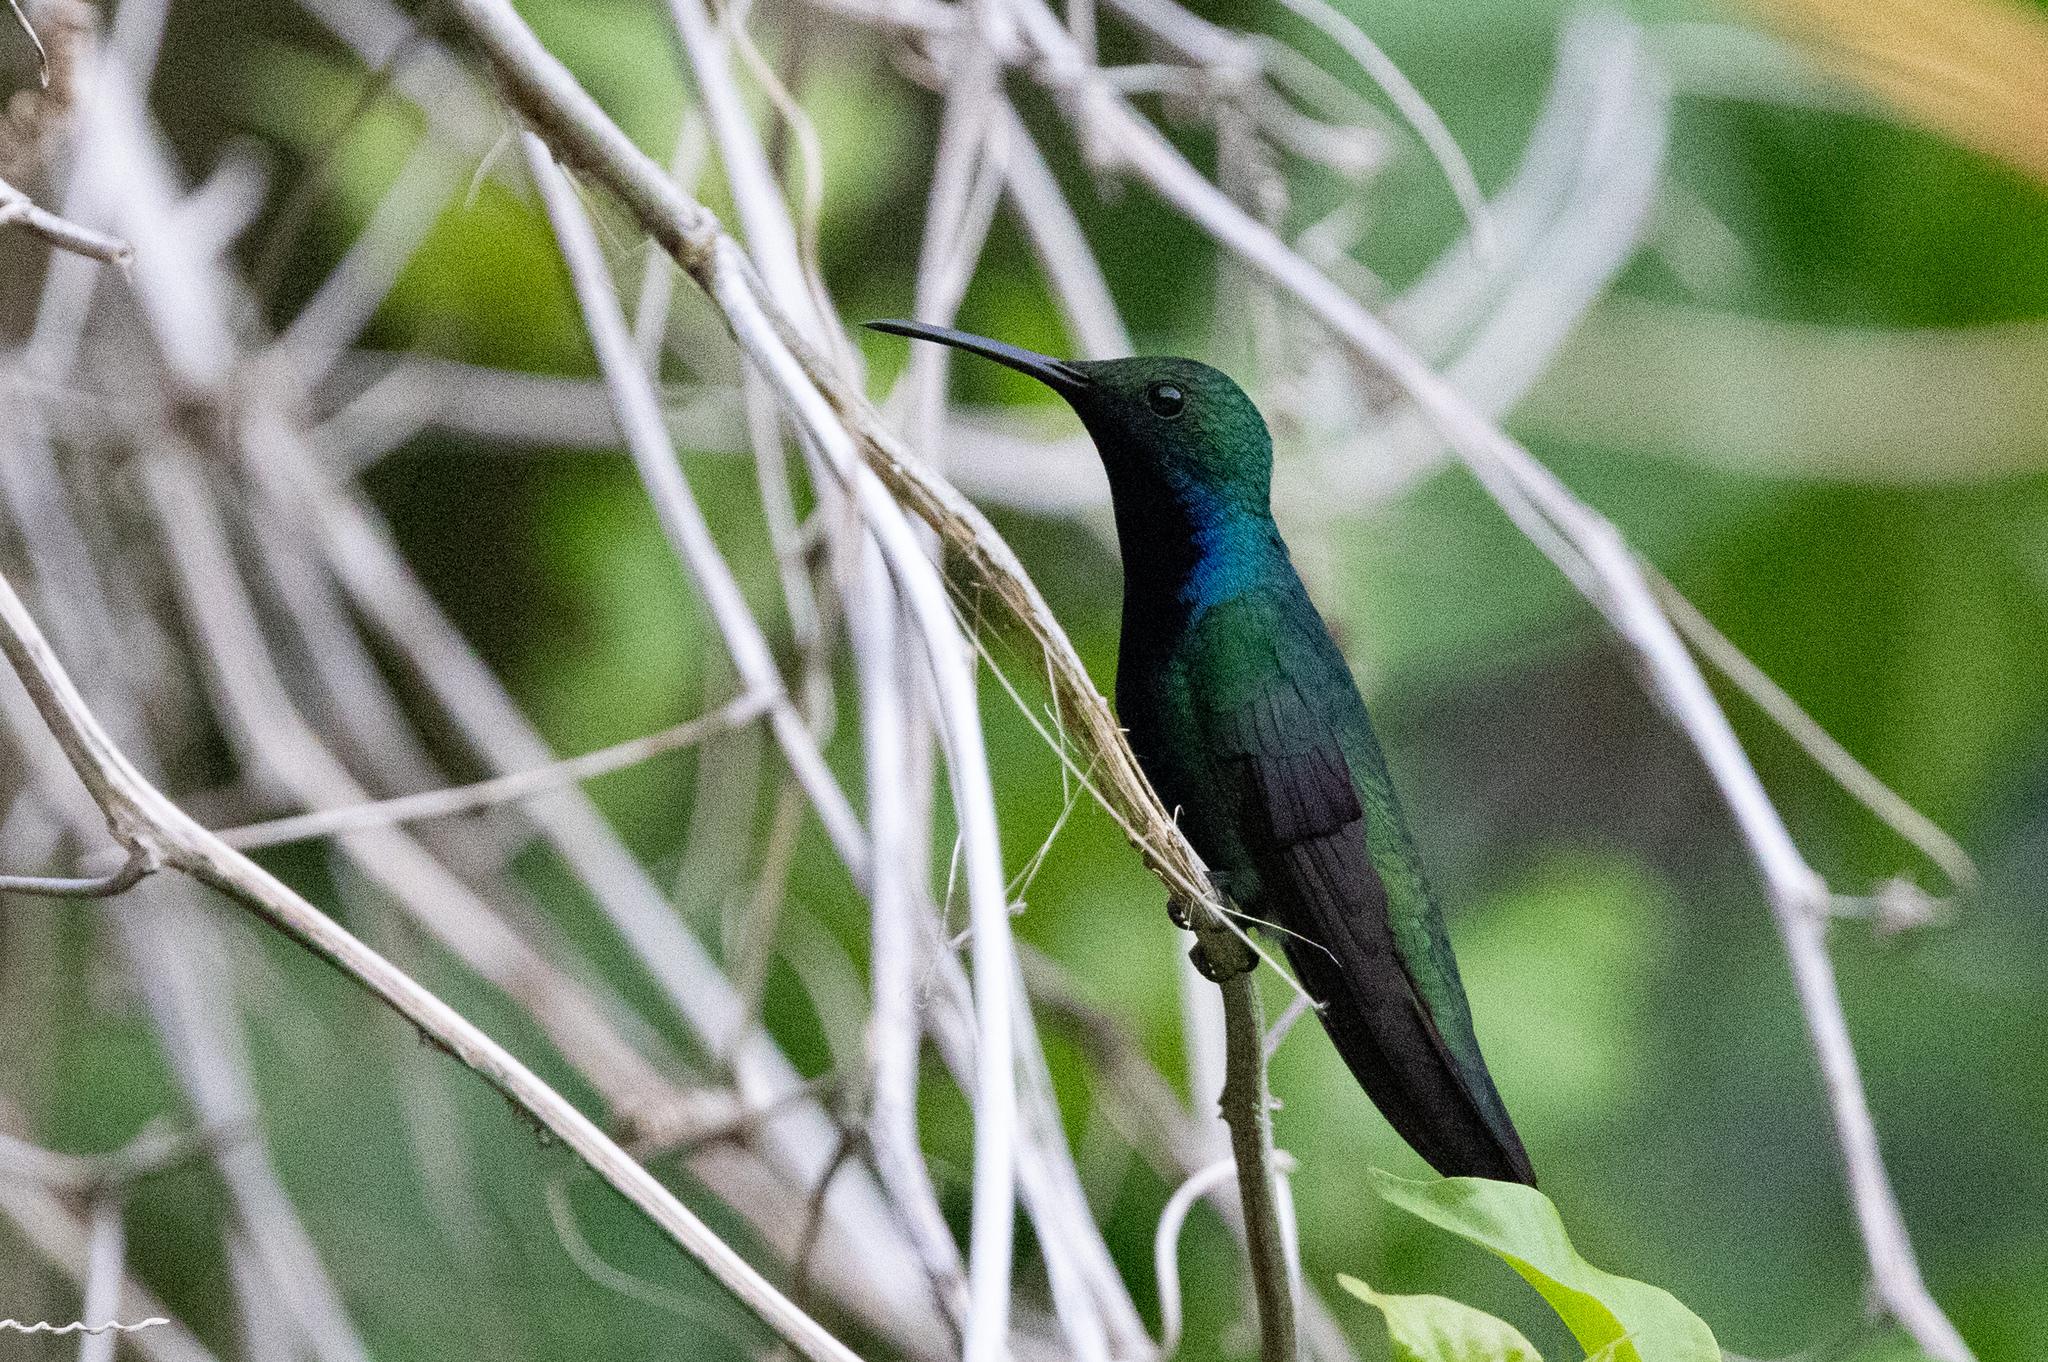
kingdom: Animalia
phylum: Chordata
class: Aves
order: Apodiformes
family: Trochilidae
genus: Anthracothorax
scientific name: Anthracothorax nigricollis
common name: Black-throated mango
